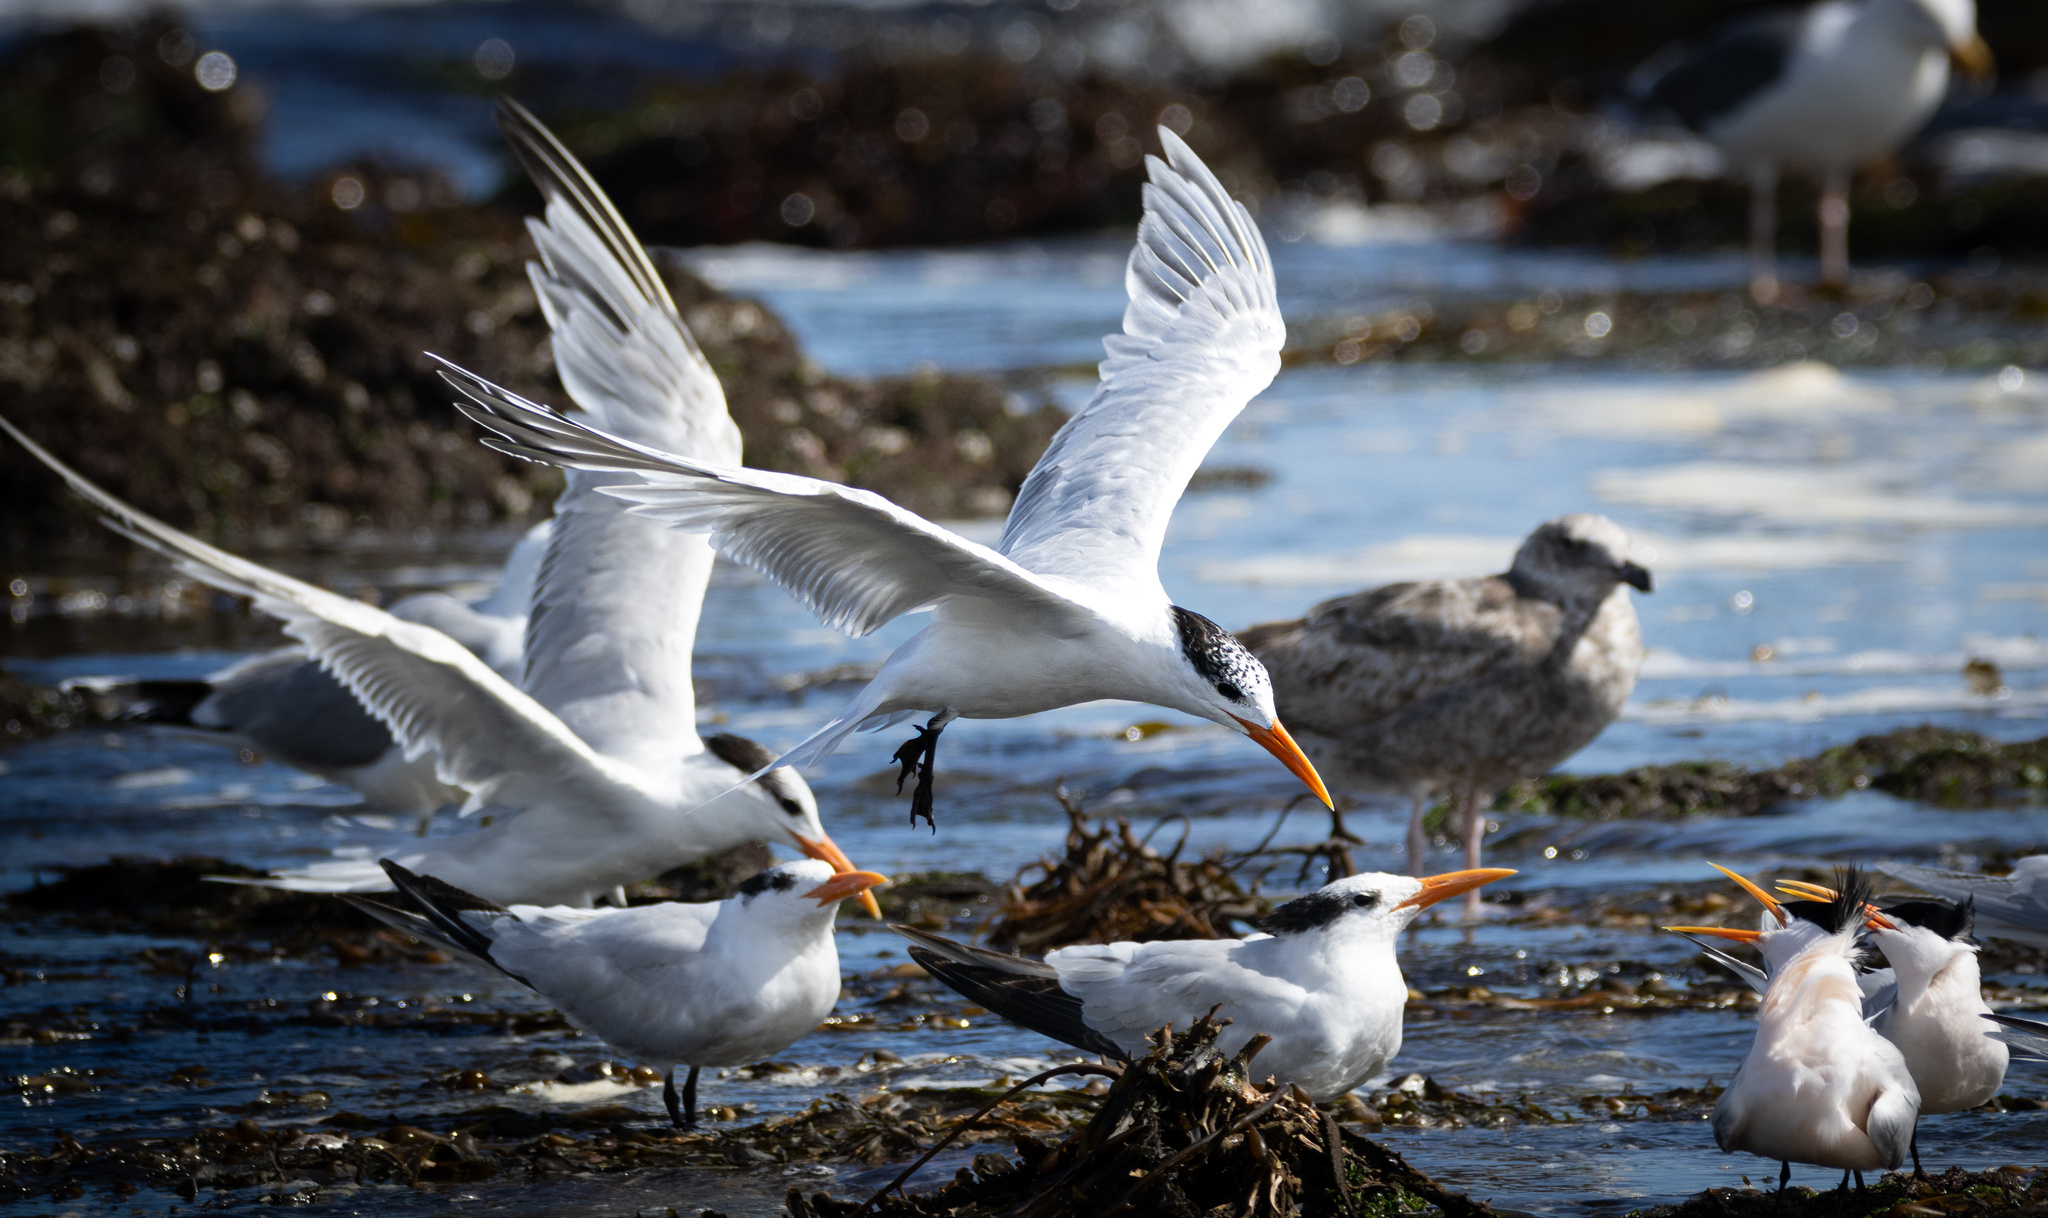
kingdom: Animalia
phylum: Chordata
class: Aves
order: Charadriiformes
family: Laridae
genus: Thalasseus
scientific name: Thalasseus maximus
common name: Royal tern
